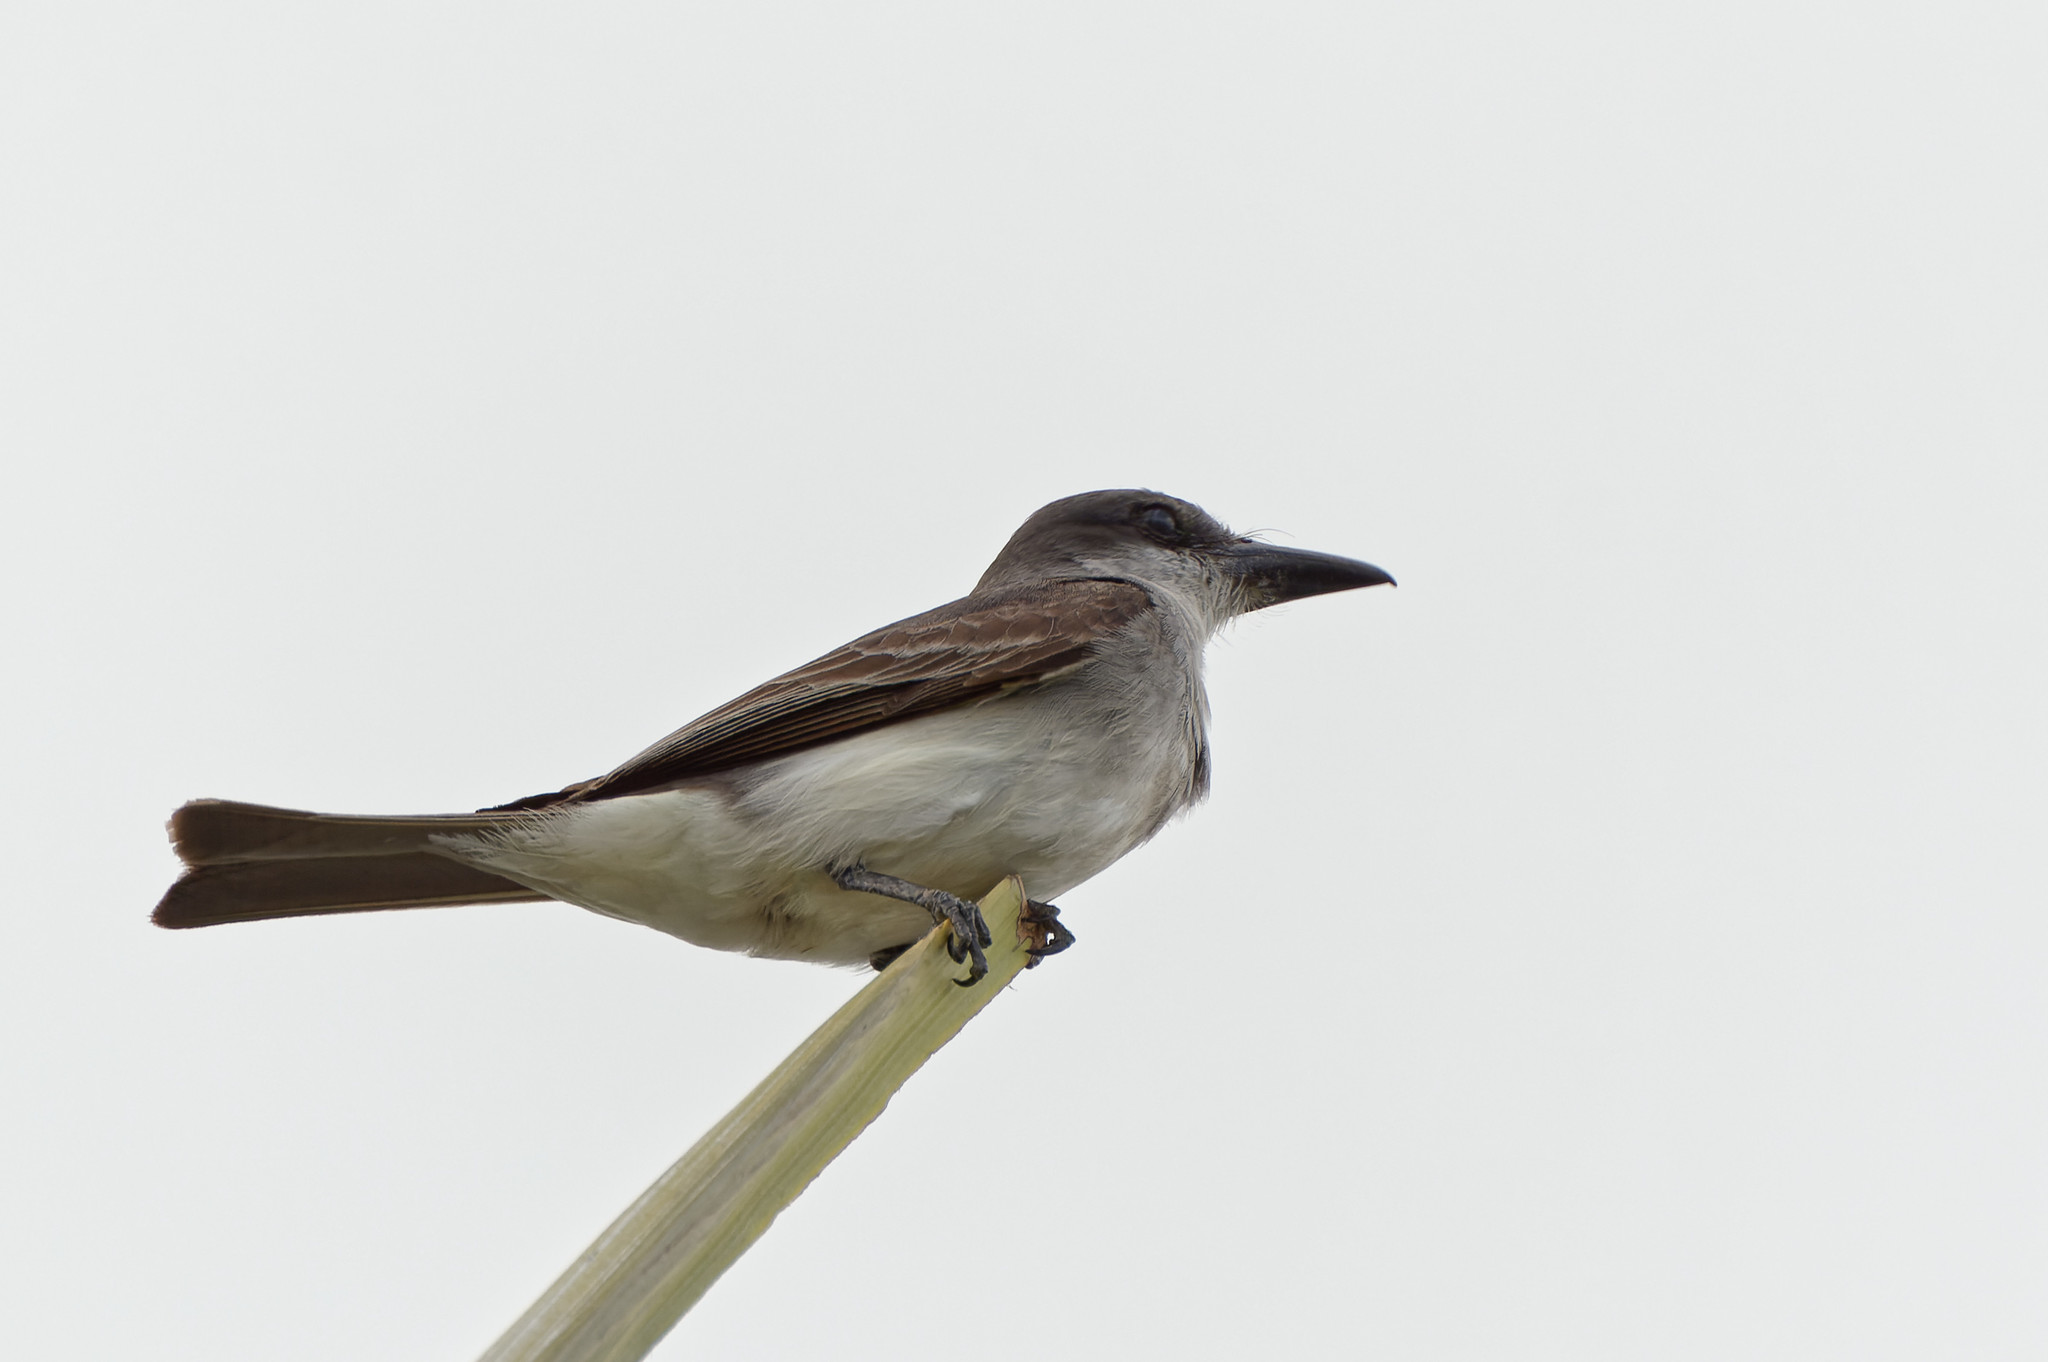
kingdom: Animalia
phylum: Chordata
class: Aves
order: Passeriformes
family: Tyrannidae
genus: Tyrannus
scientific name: Tyrannus dominicensis
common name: Gray kingbird
